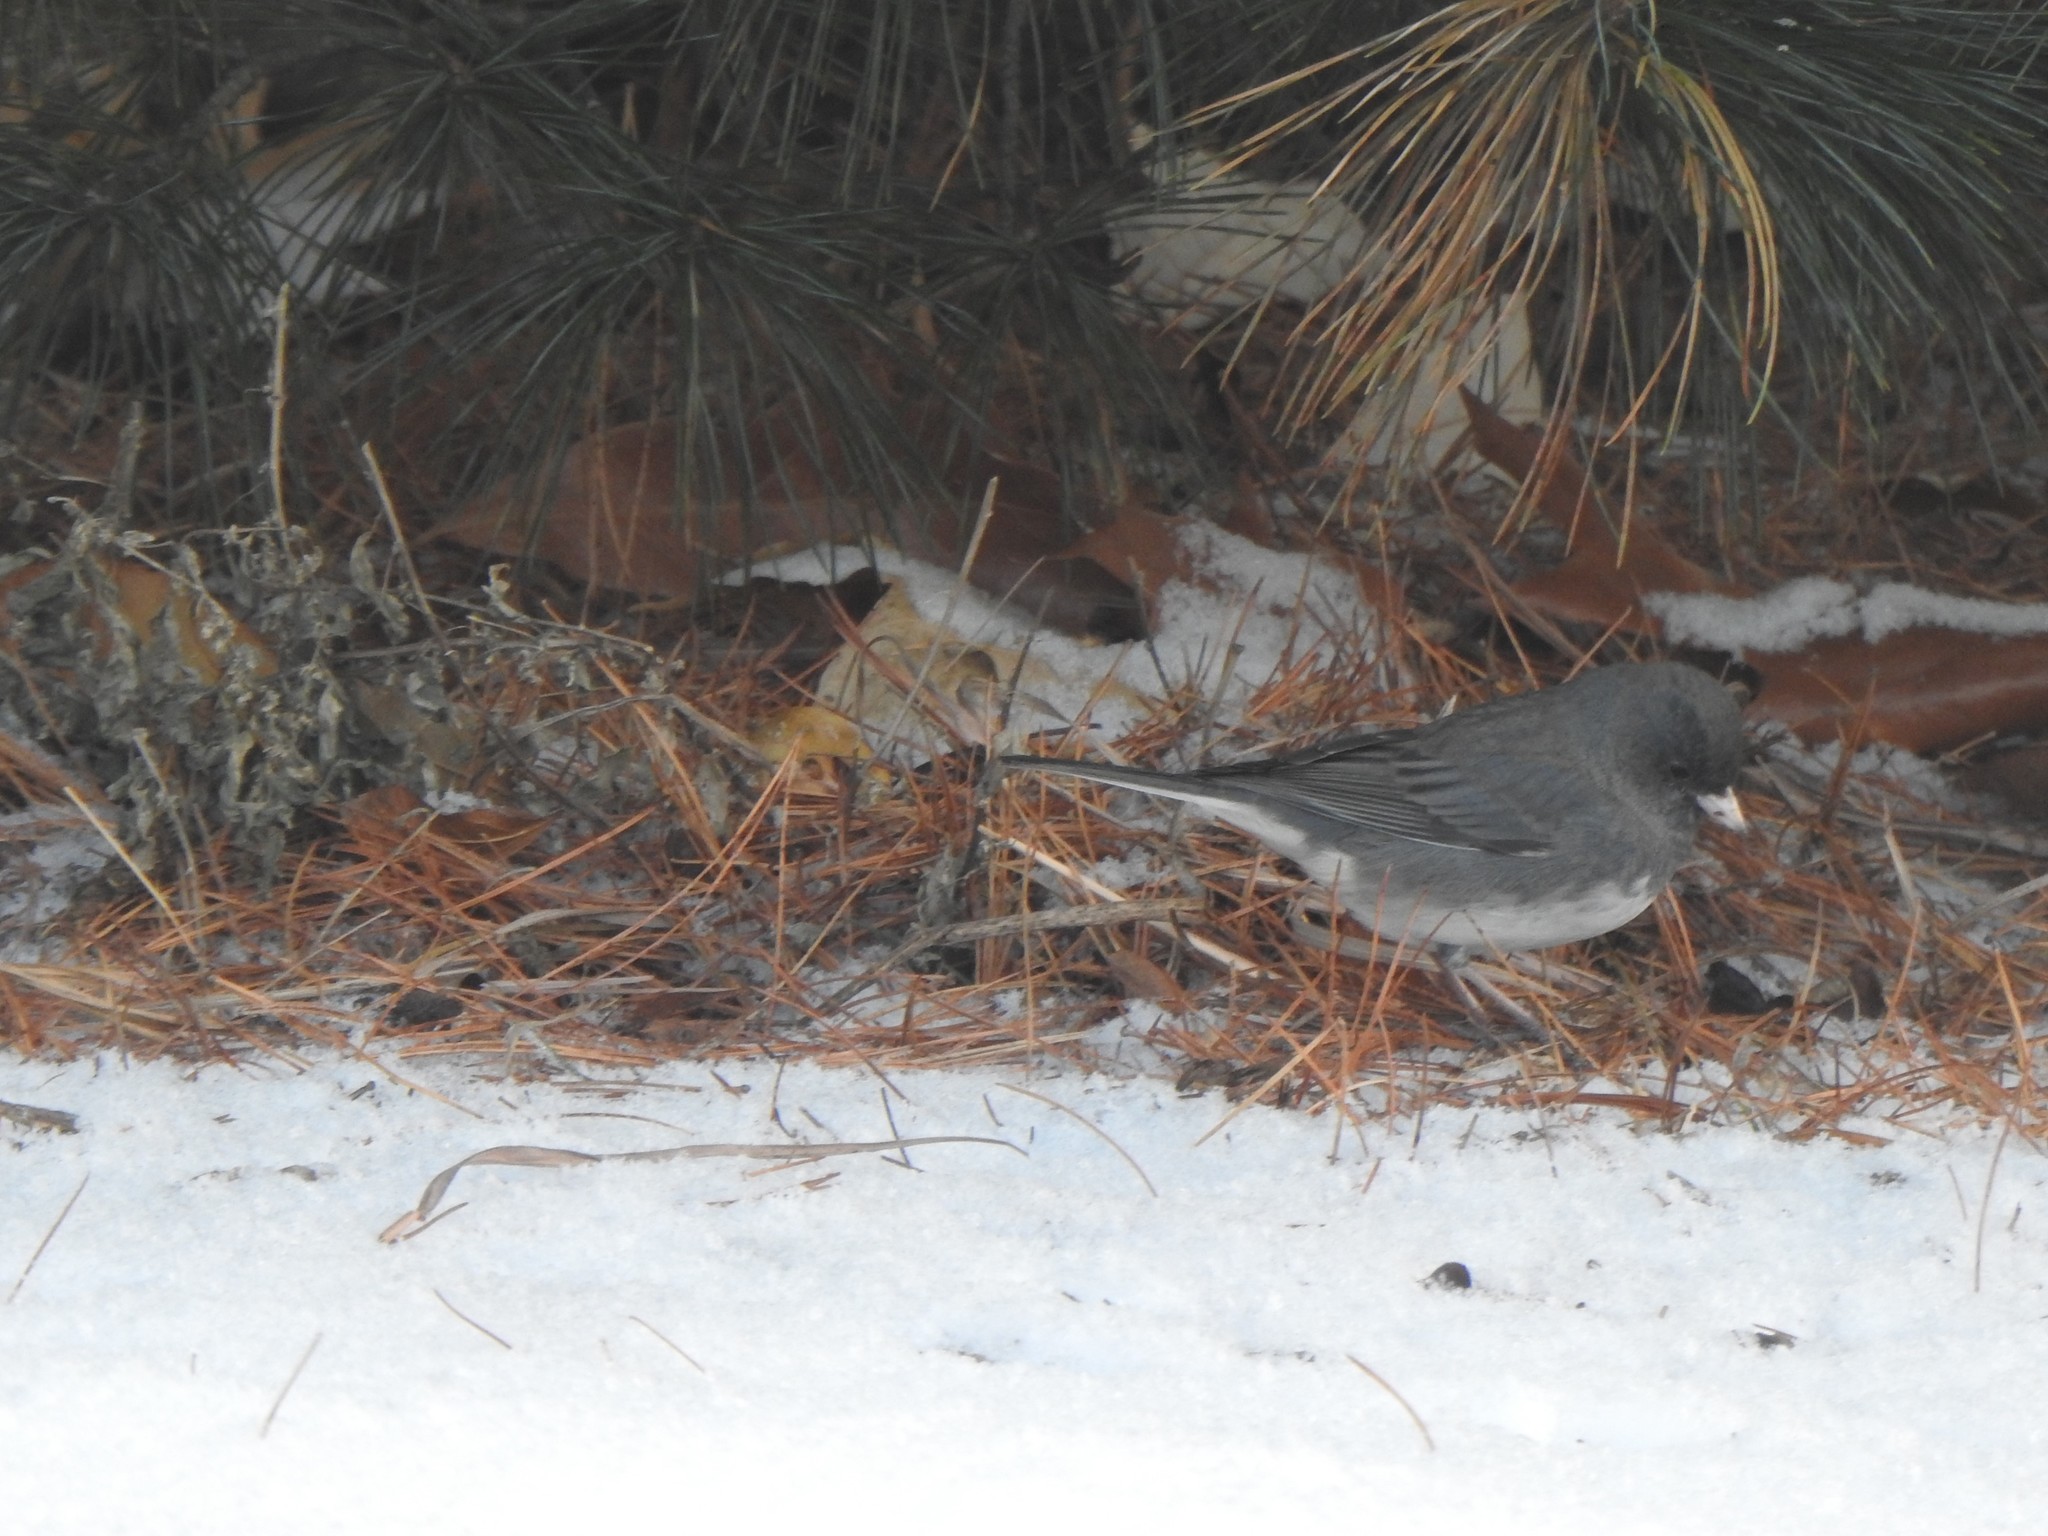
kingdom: Animalia
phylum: Chordata
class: Aves
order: Passeriformes
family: Passerellidae
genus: Junco
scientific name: Junco hyemalis
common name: Dark-eyed junco
